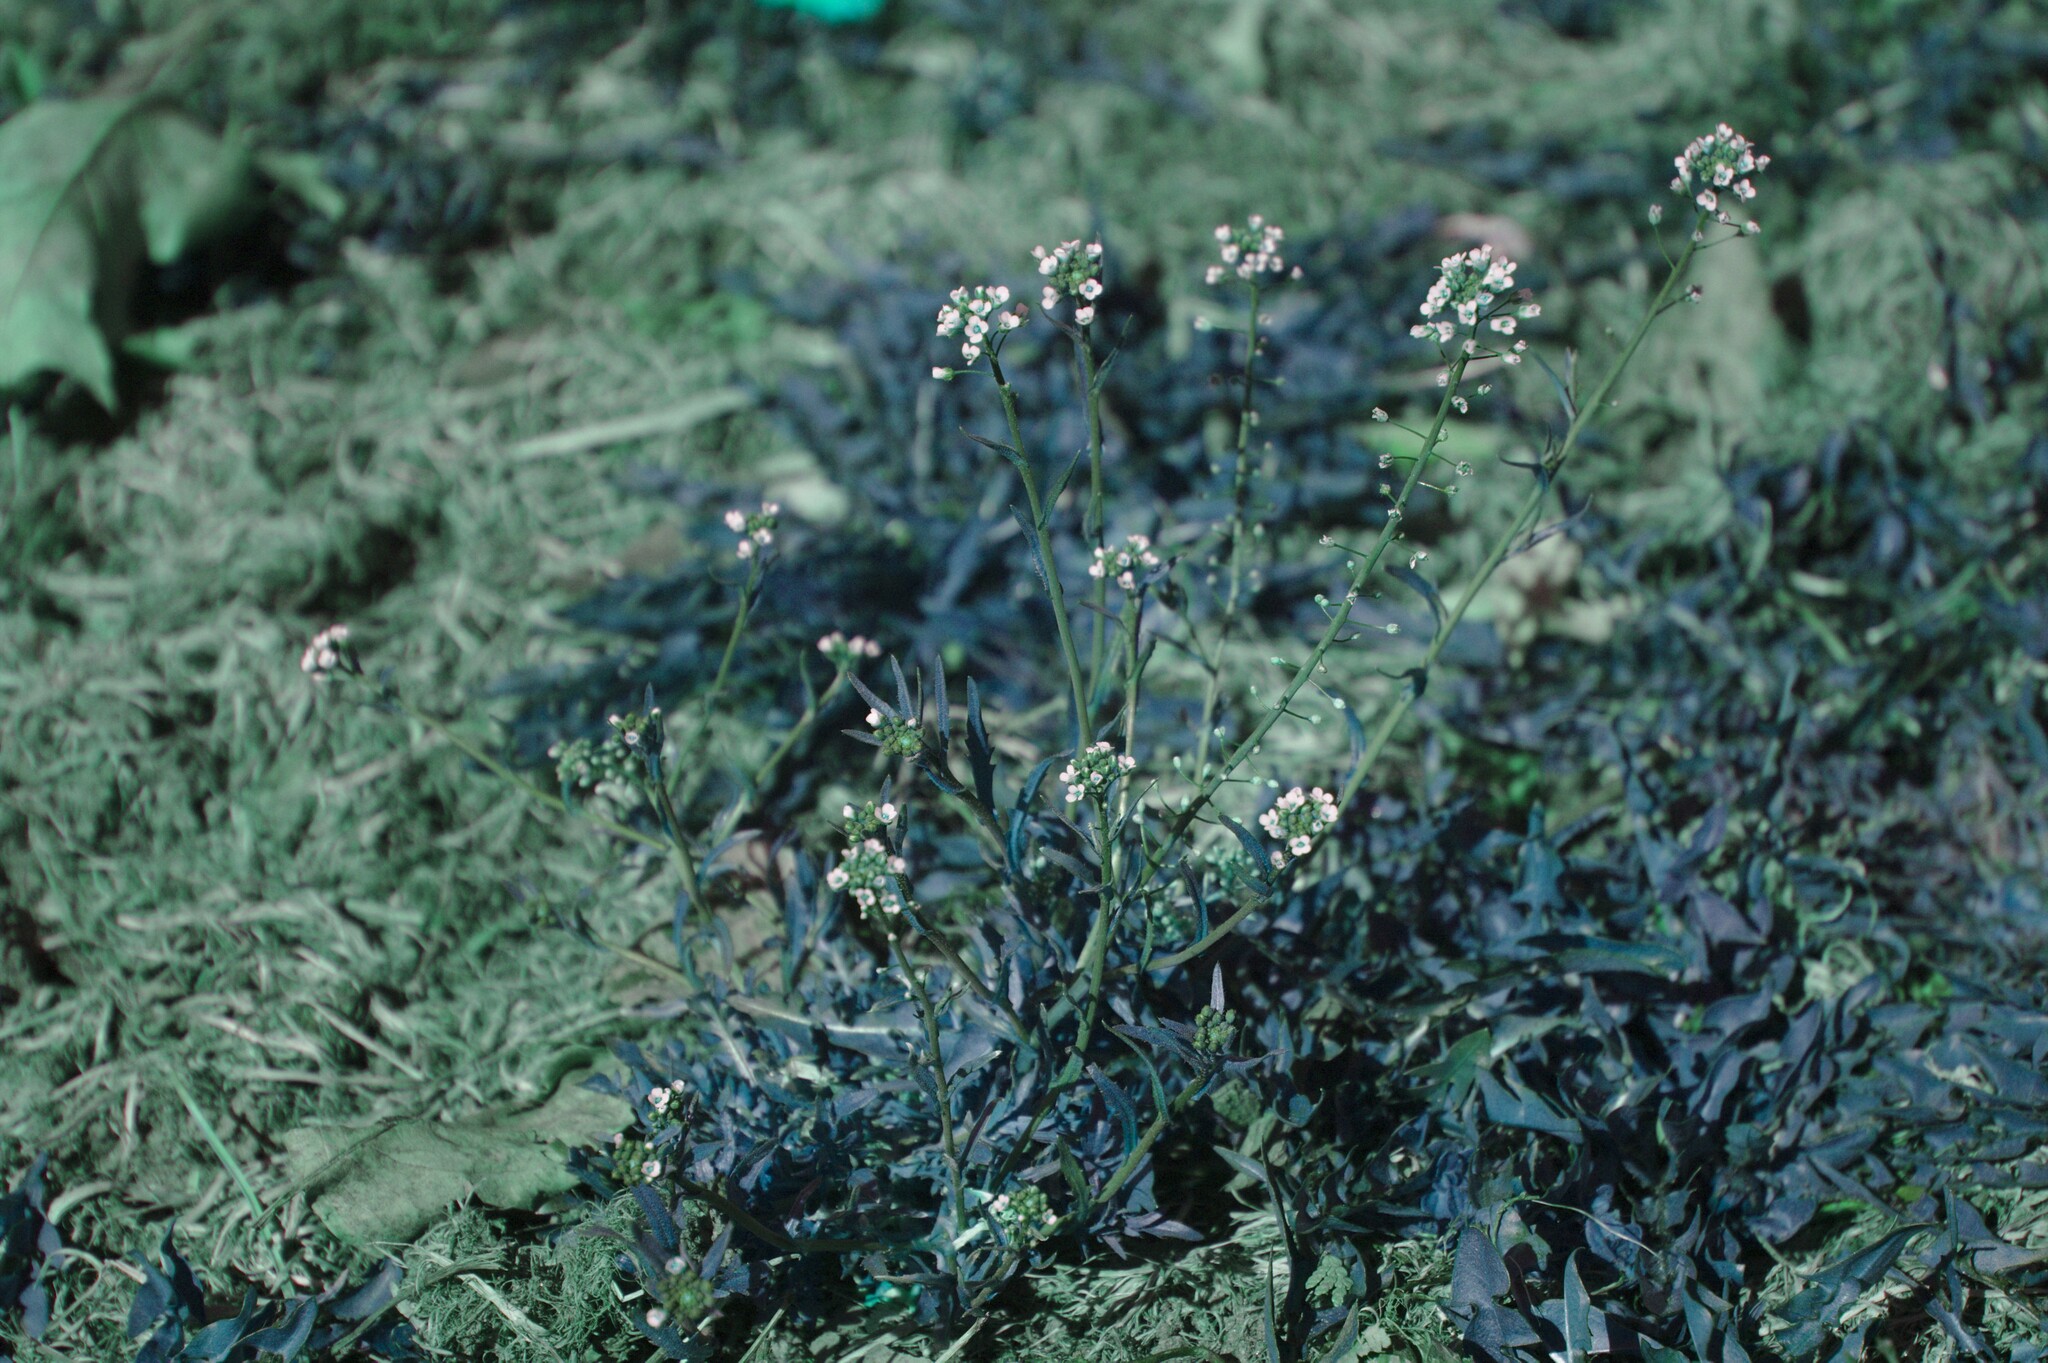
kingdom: Plantae
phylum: Tracheophyta
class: Magnoliopsida
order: Brassicales
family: Brassicaceae
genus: Capsella
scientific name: Capsella bursa-pastoris
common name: Shepherd's purse
